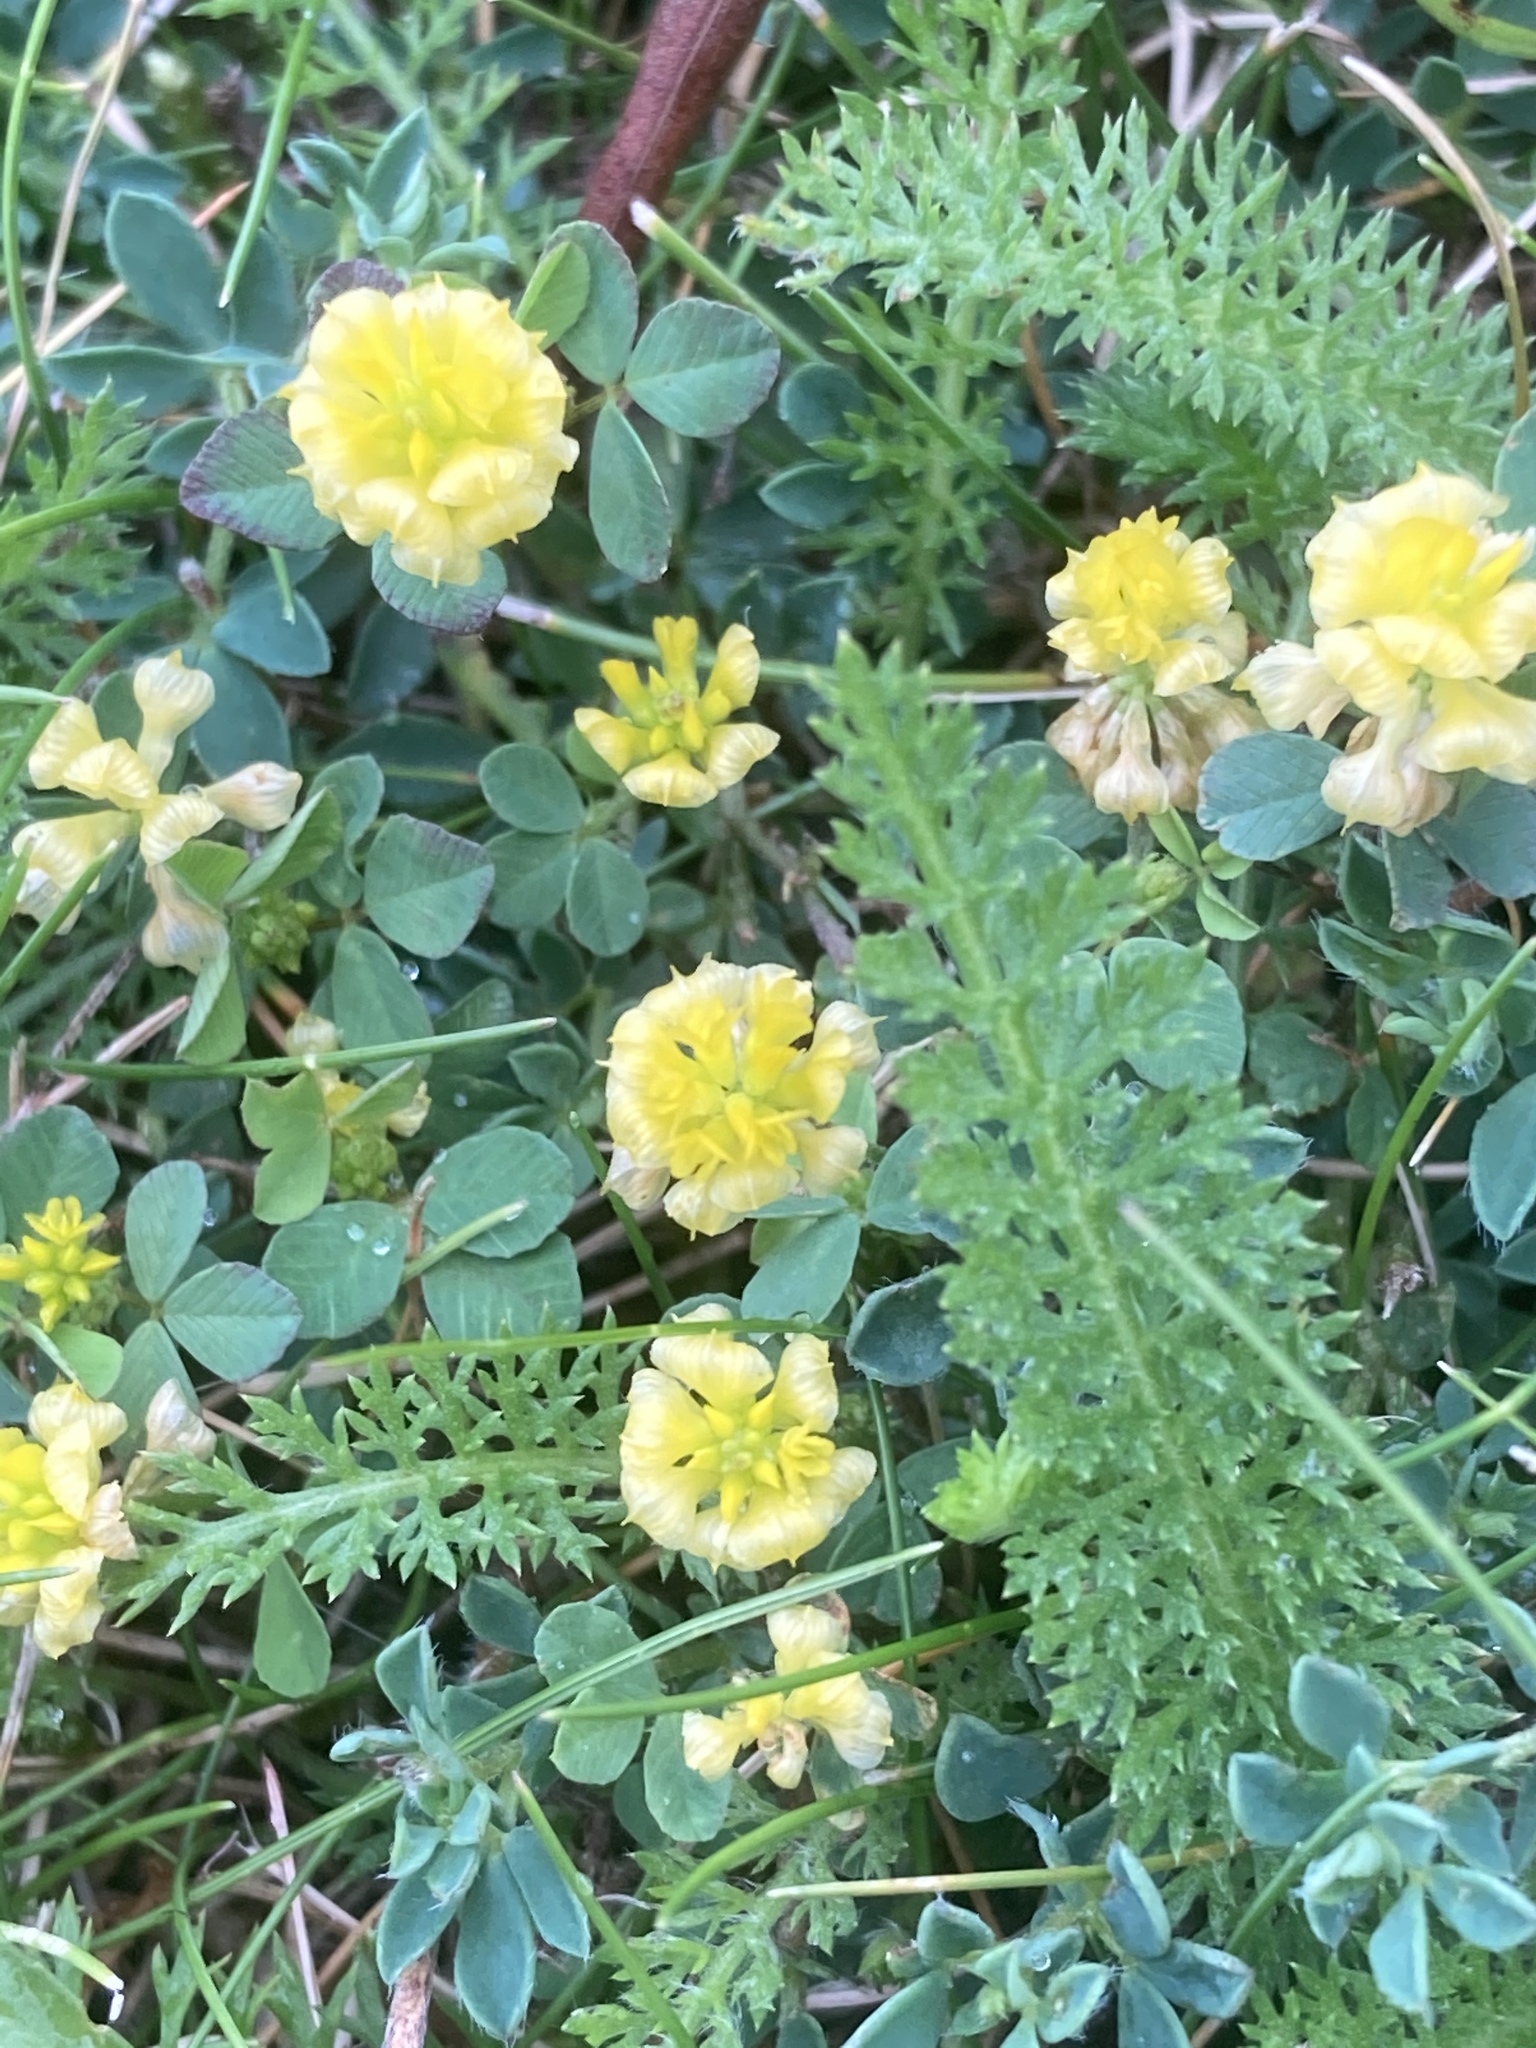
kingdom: Plantae
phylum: Tracheophyta
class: Magnoliopsida
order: Fabales
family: Fabaceae
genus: Trifolium
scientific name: Trifolium campestre
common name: Field clover
